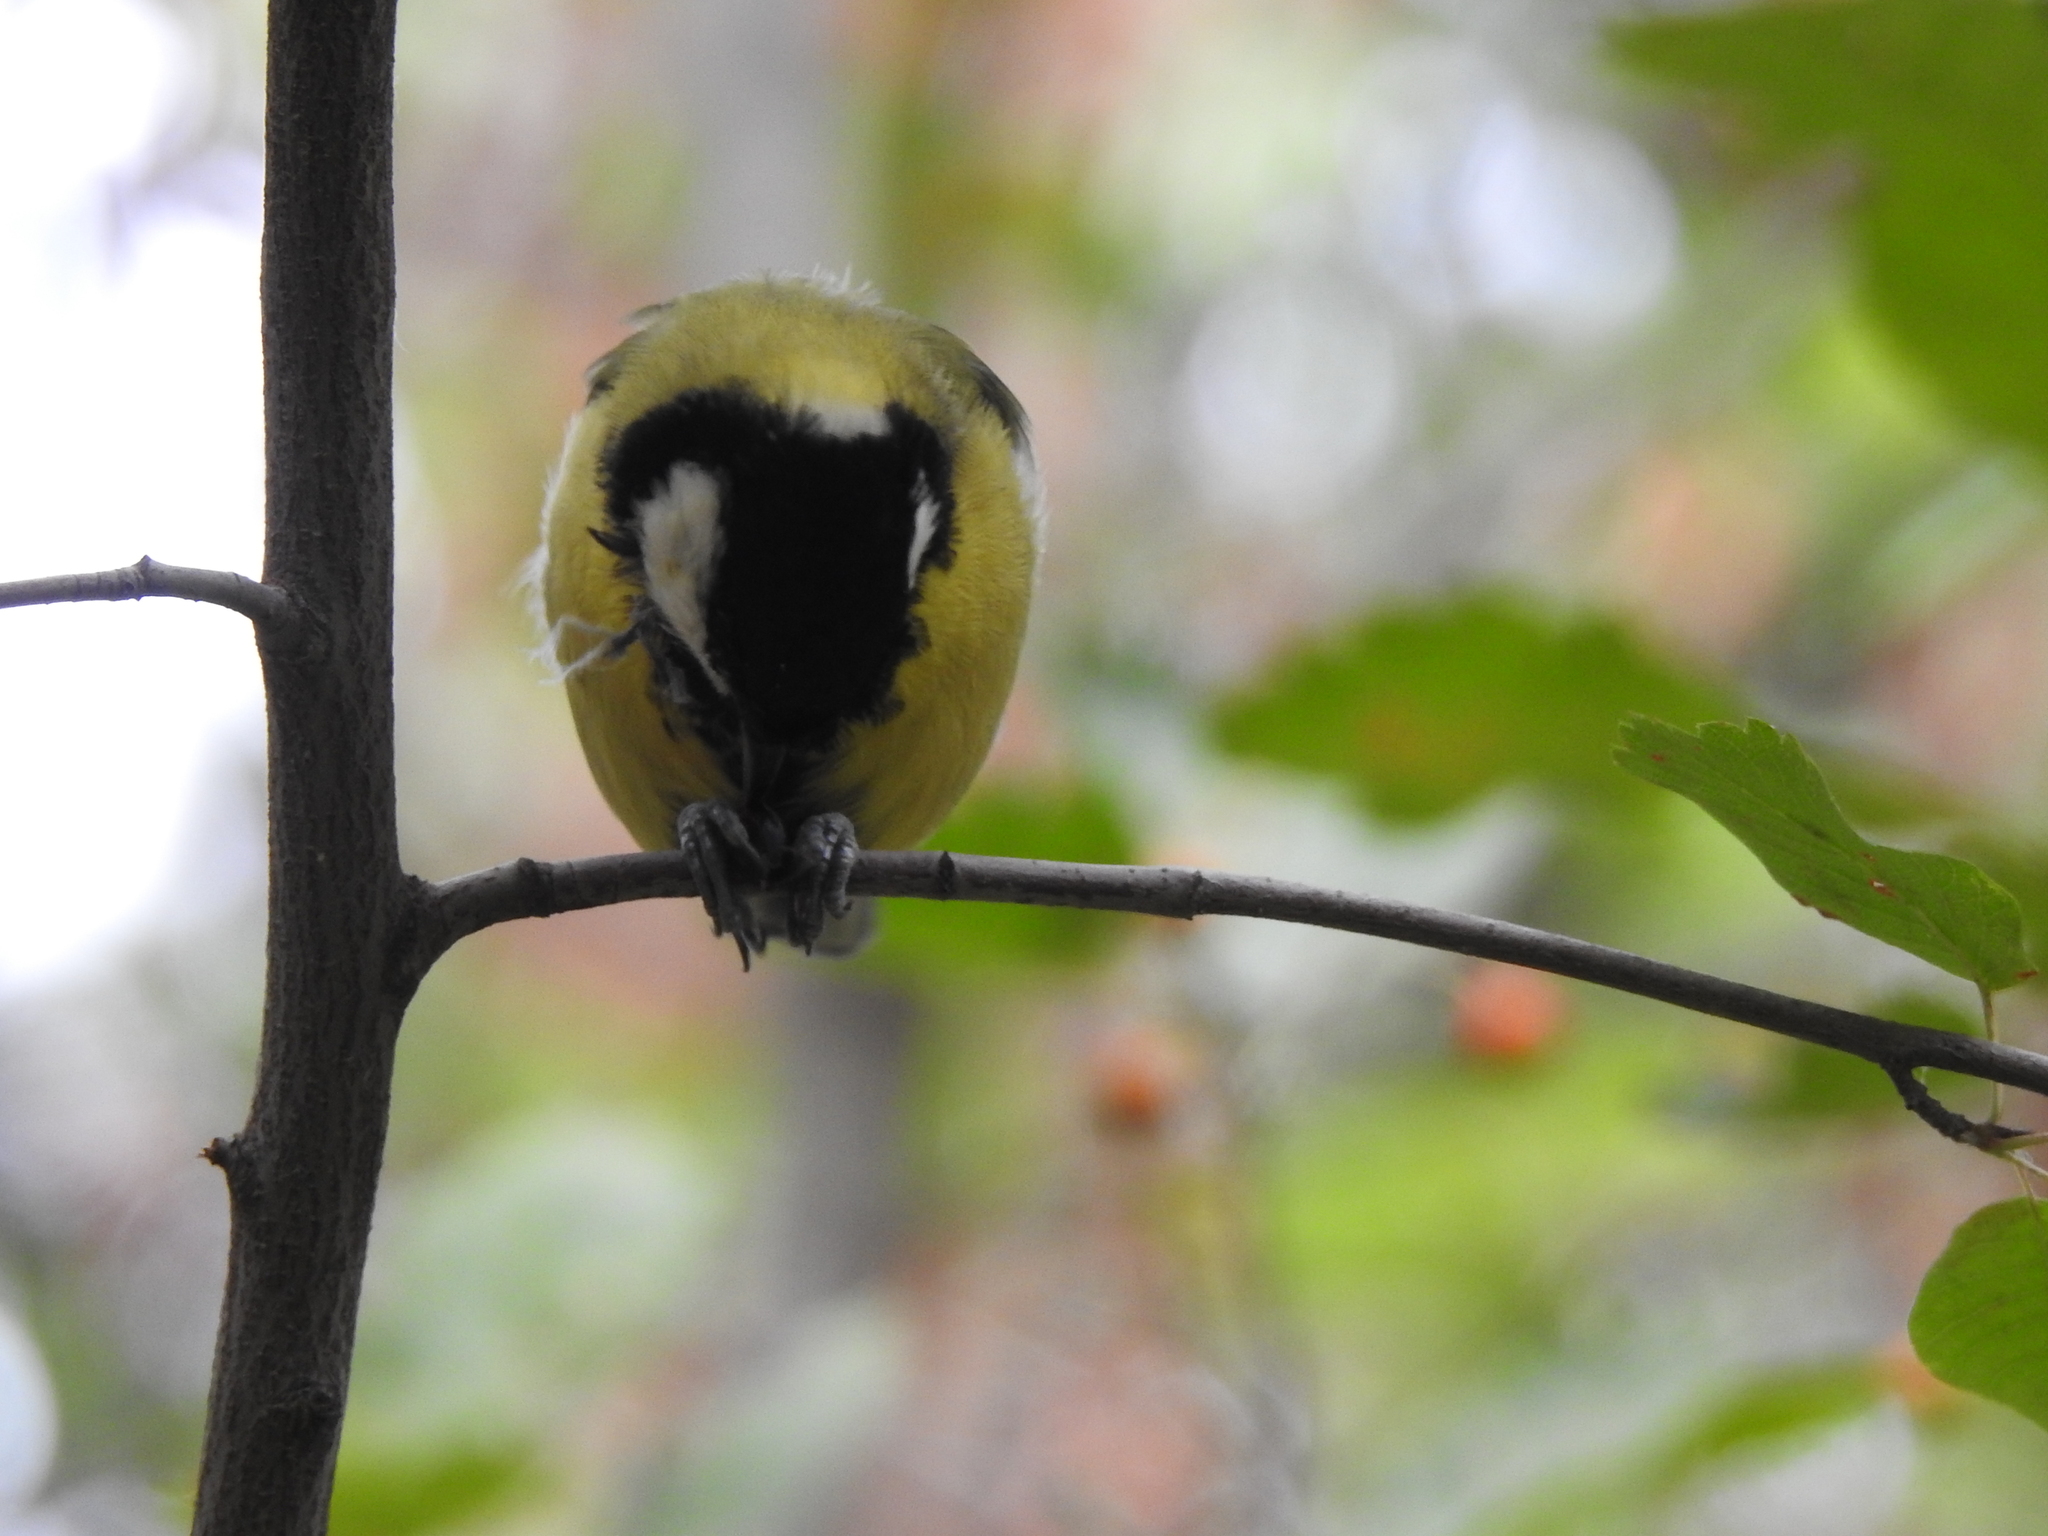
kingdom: Animalia
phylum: Chordata
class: Aves
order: Passeriformes
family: Paridae
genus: Parus
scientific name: Parus major
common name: Great tit
